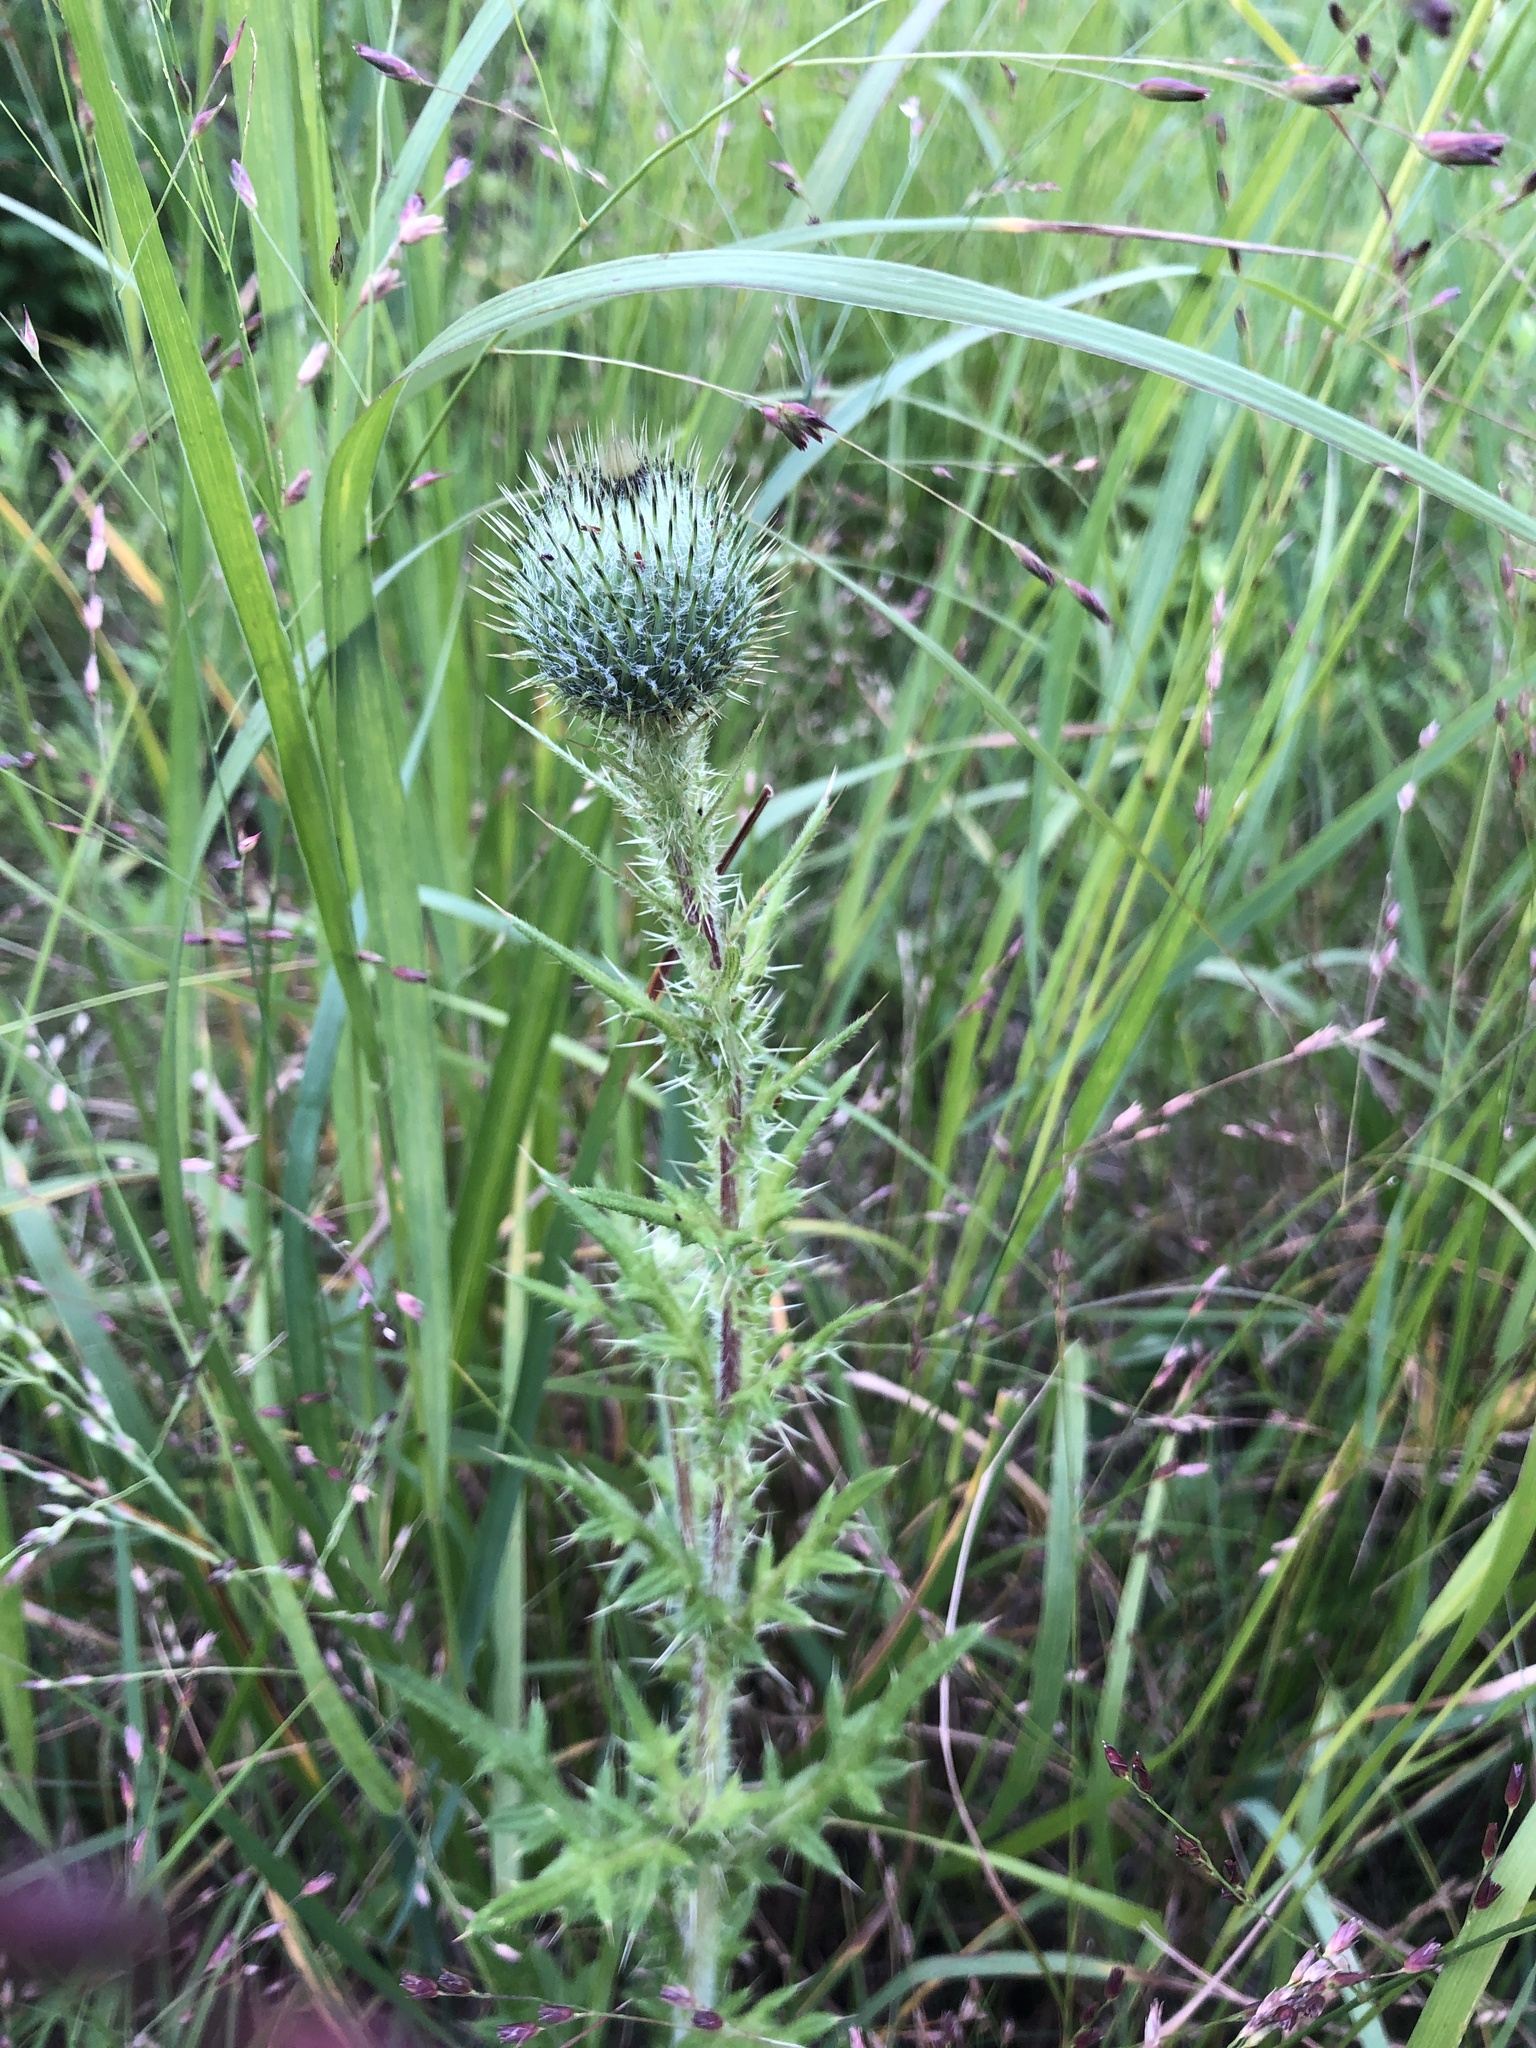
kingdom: Plantae
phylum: Tracheophyta
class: Magnoliopsida
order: Asterales
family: Asteraceae
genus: Cirsium
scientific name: Cirsium vulgare
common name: Bull thistle
